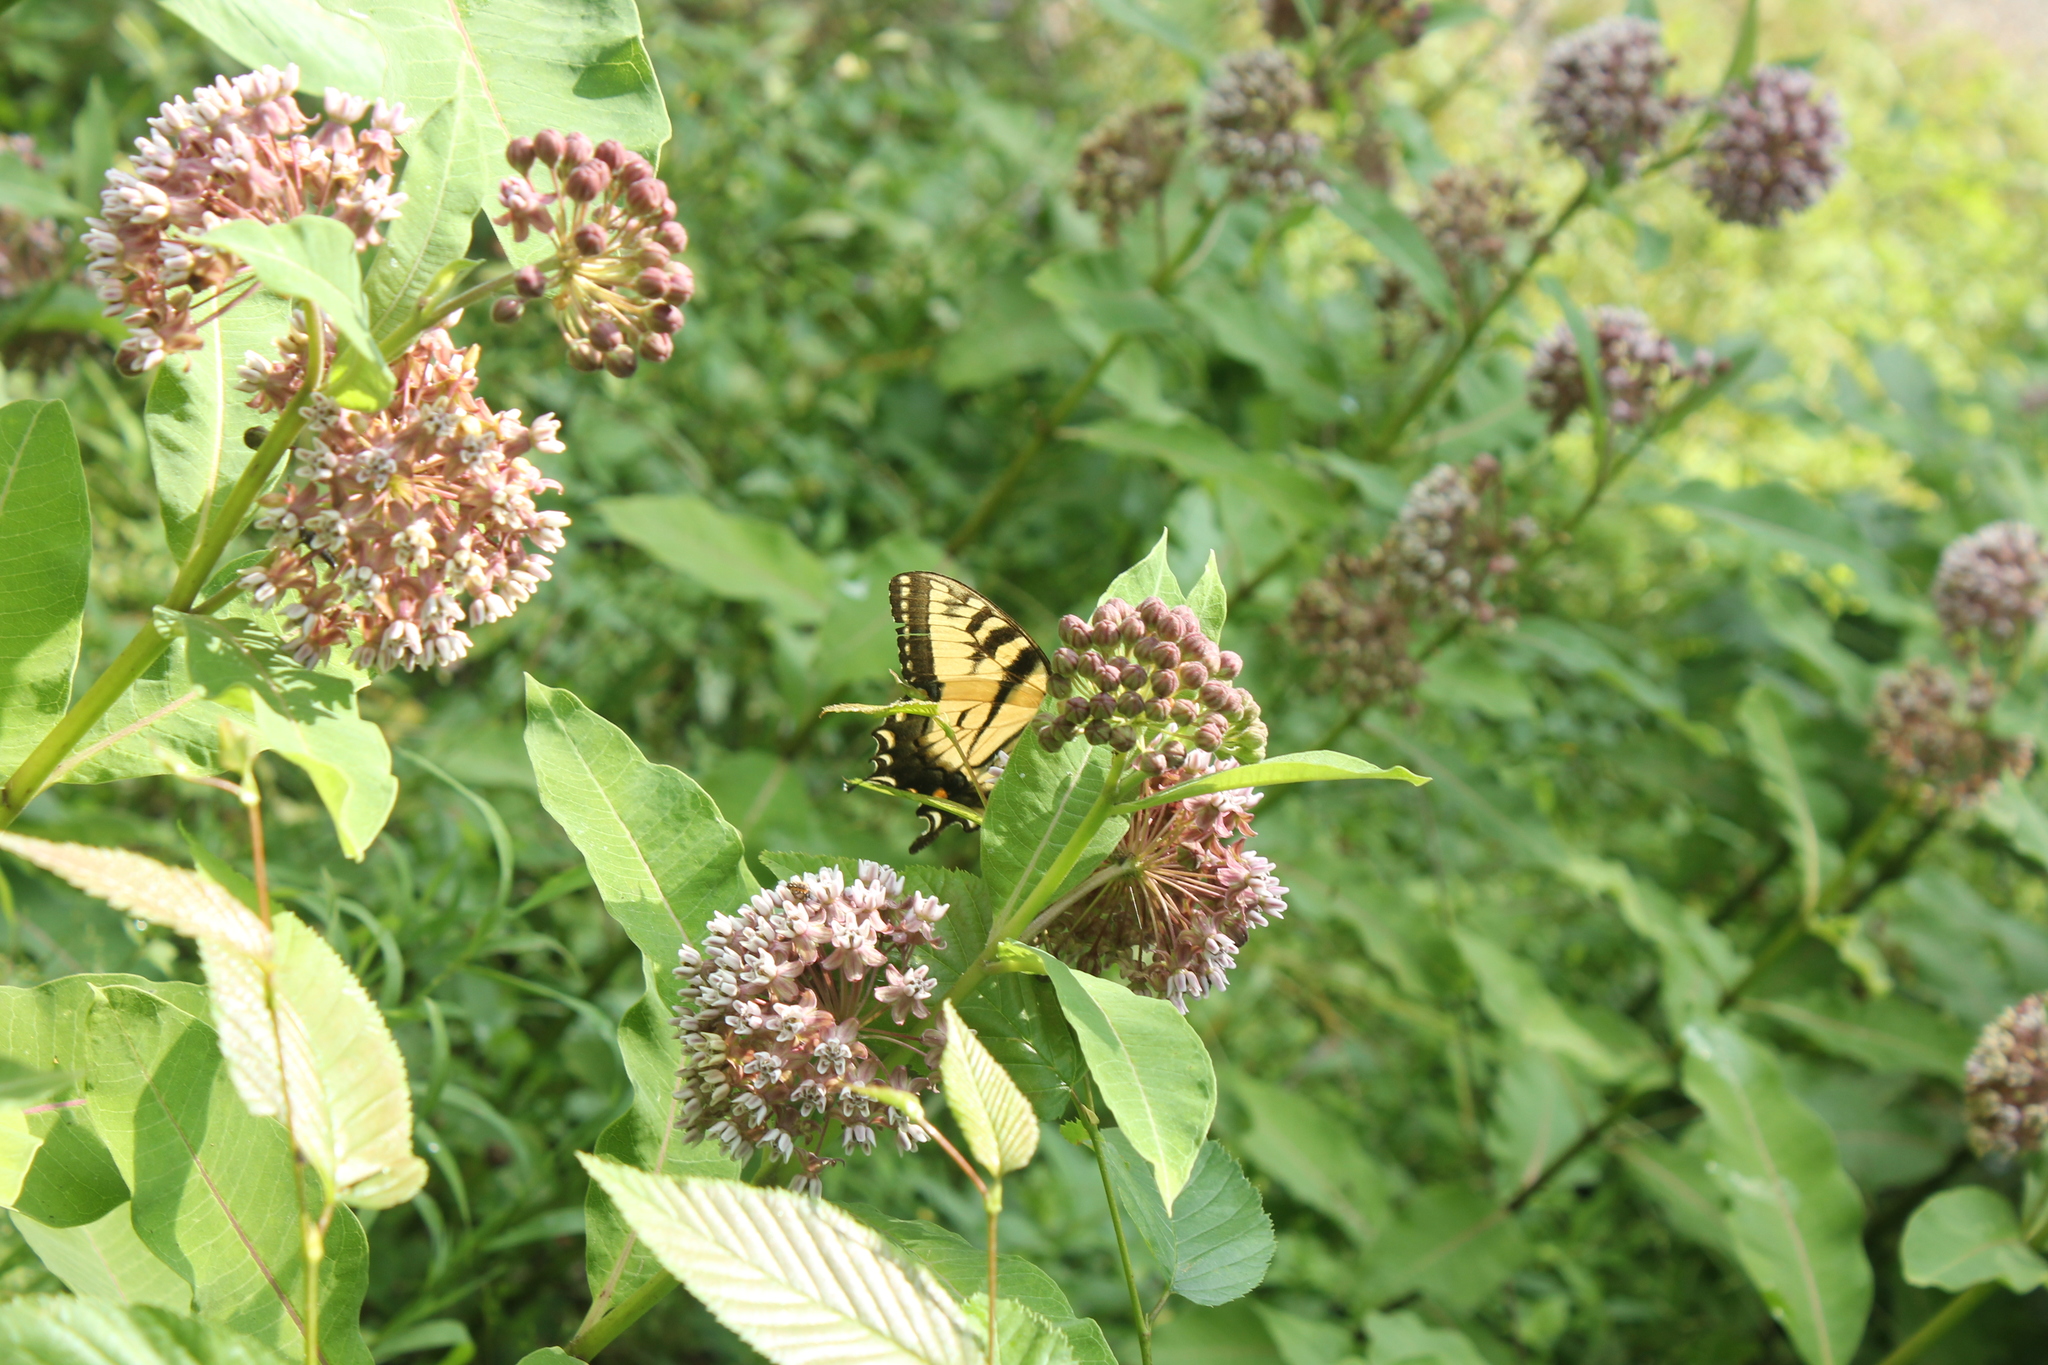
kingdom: Animalia
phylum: Arthropoda
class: Insecta
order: Lepidoptera
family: Papilionidae
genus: Papilio
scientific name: Papilio glaucus
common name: Tiger swallowtail
